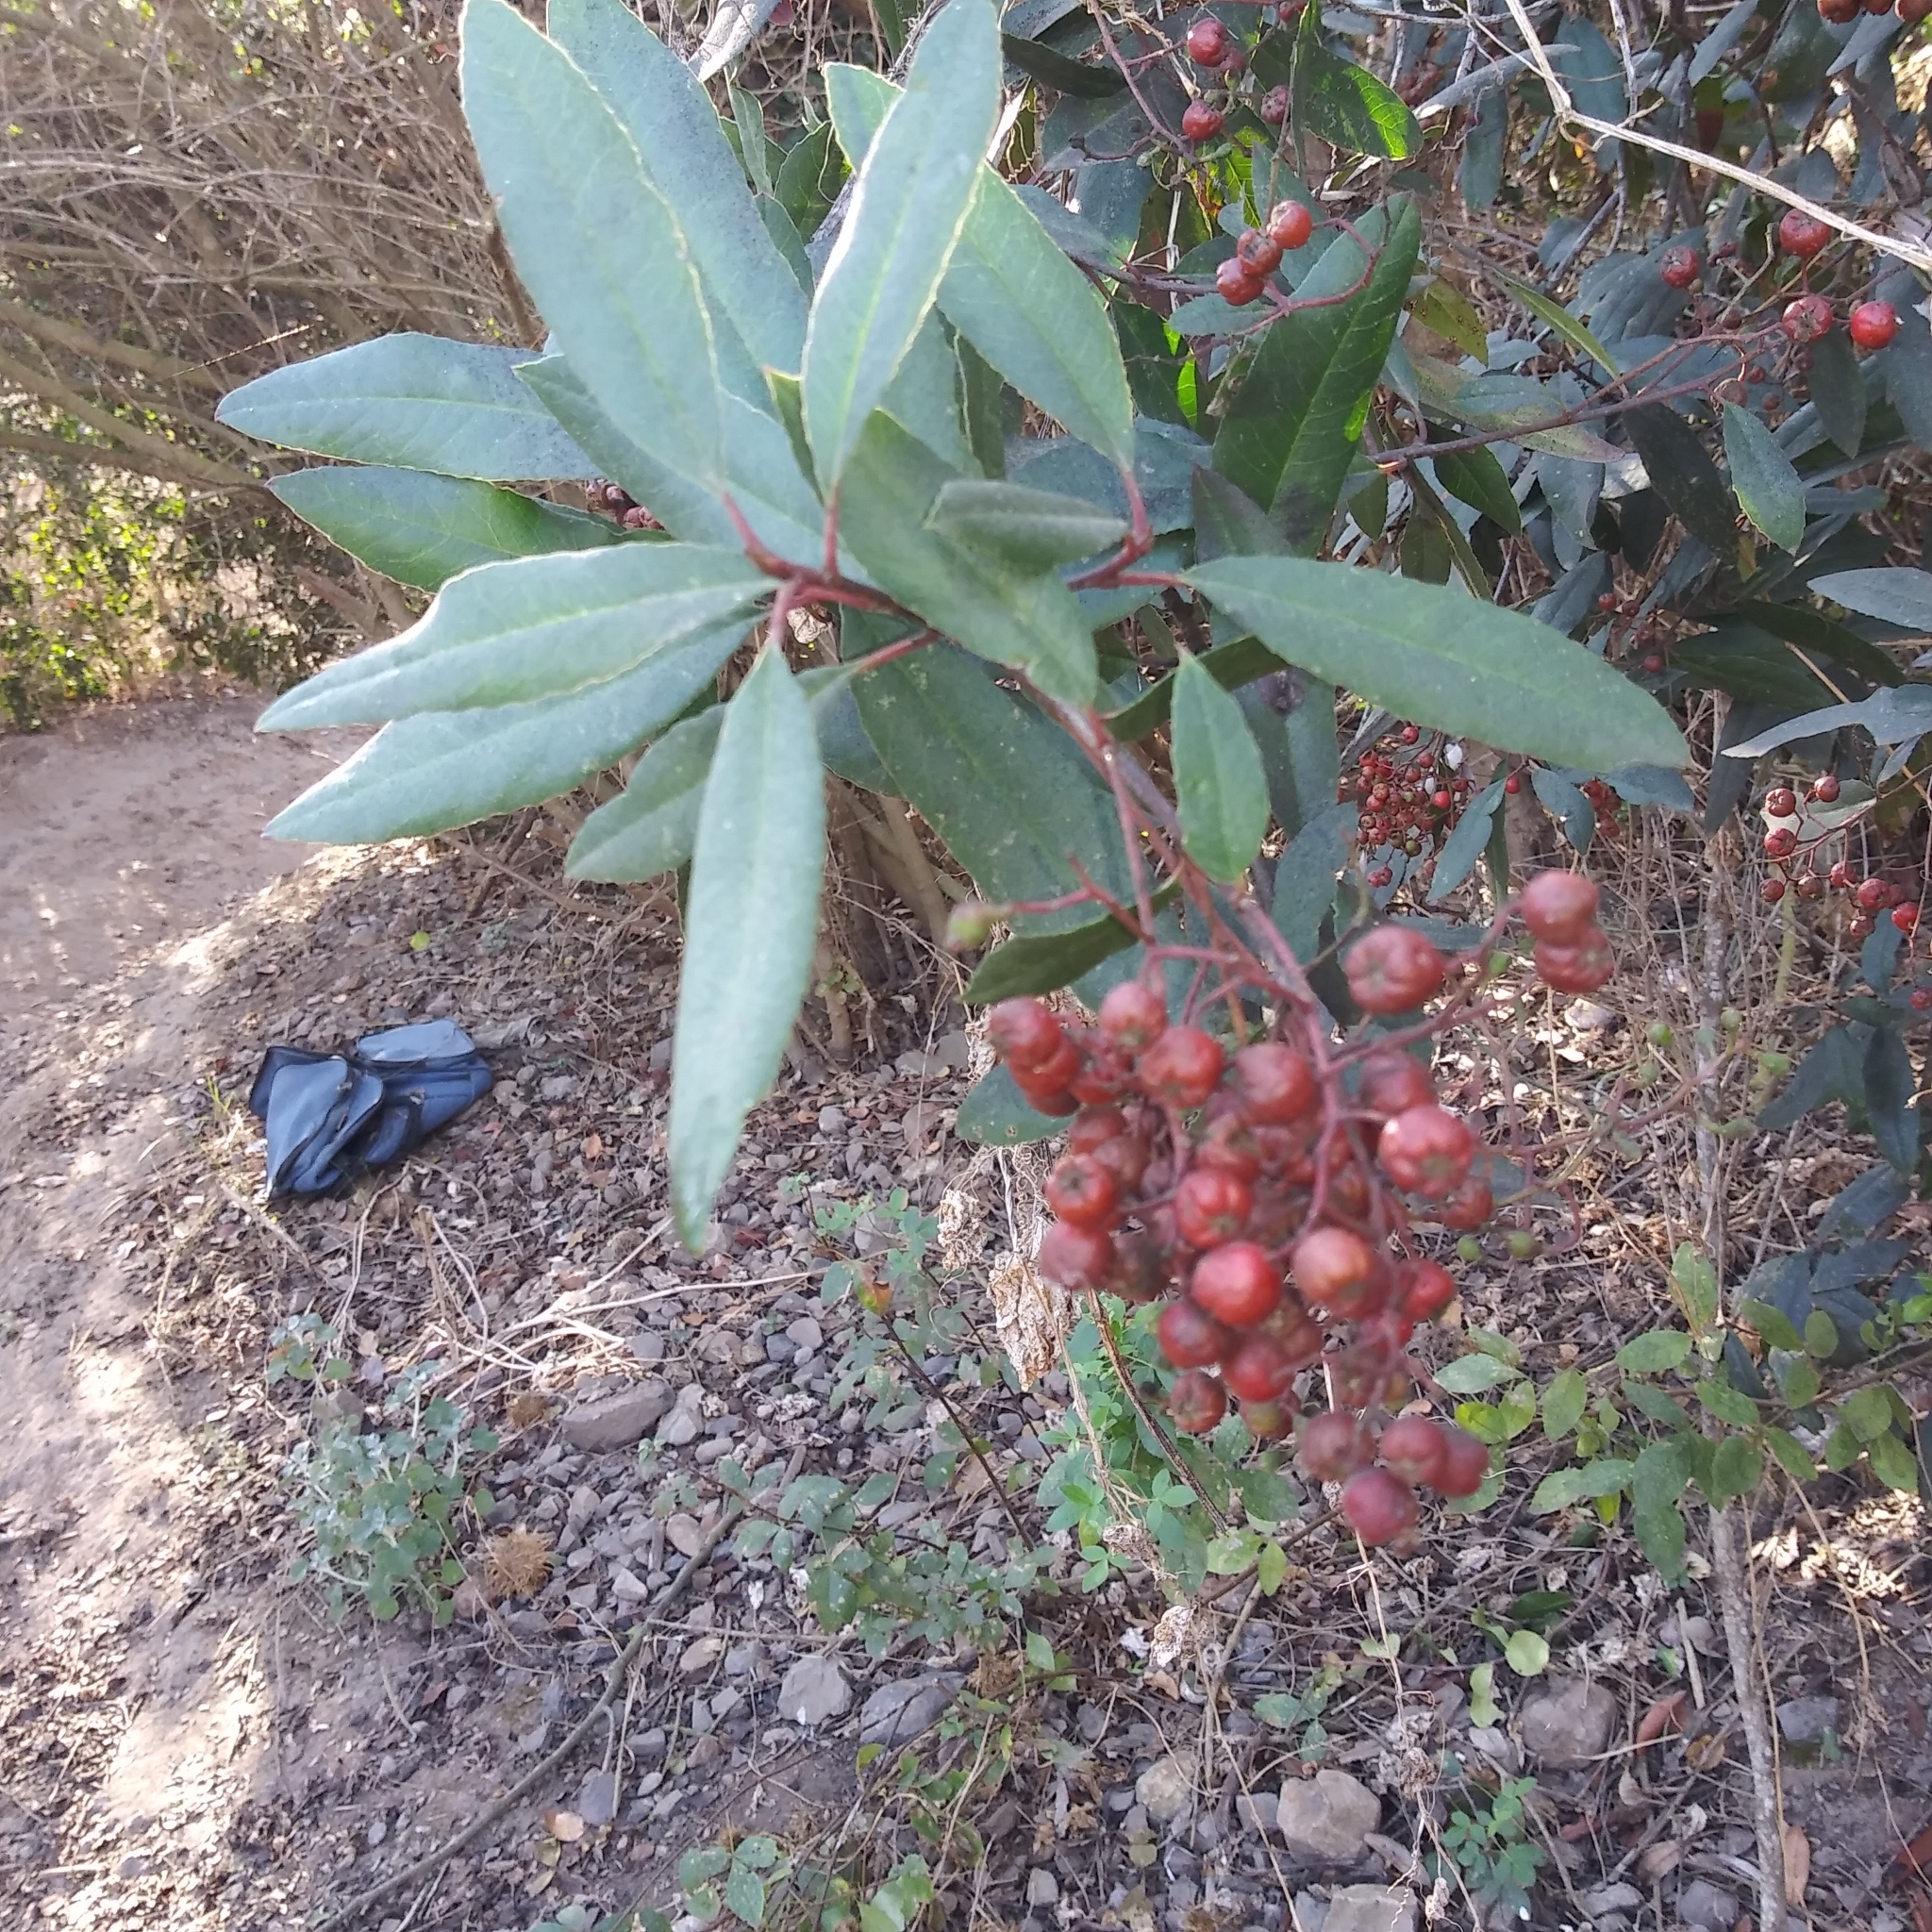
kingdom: Plantae
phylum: Tracheophyta
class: Magnoliopsida
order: Rosales
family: Rosaceae
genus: Heteromeles
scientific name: Heteromeles arbutifolia
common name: California-holly
